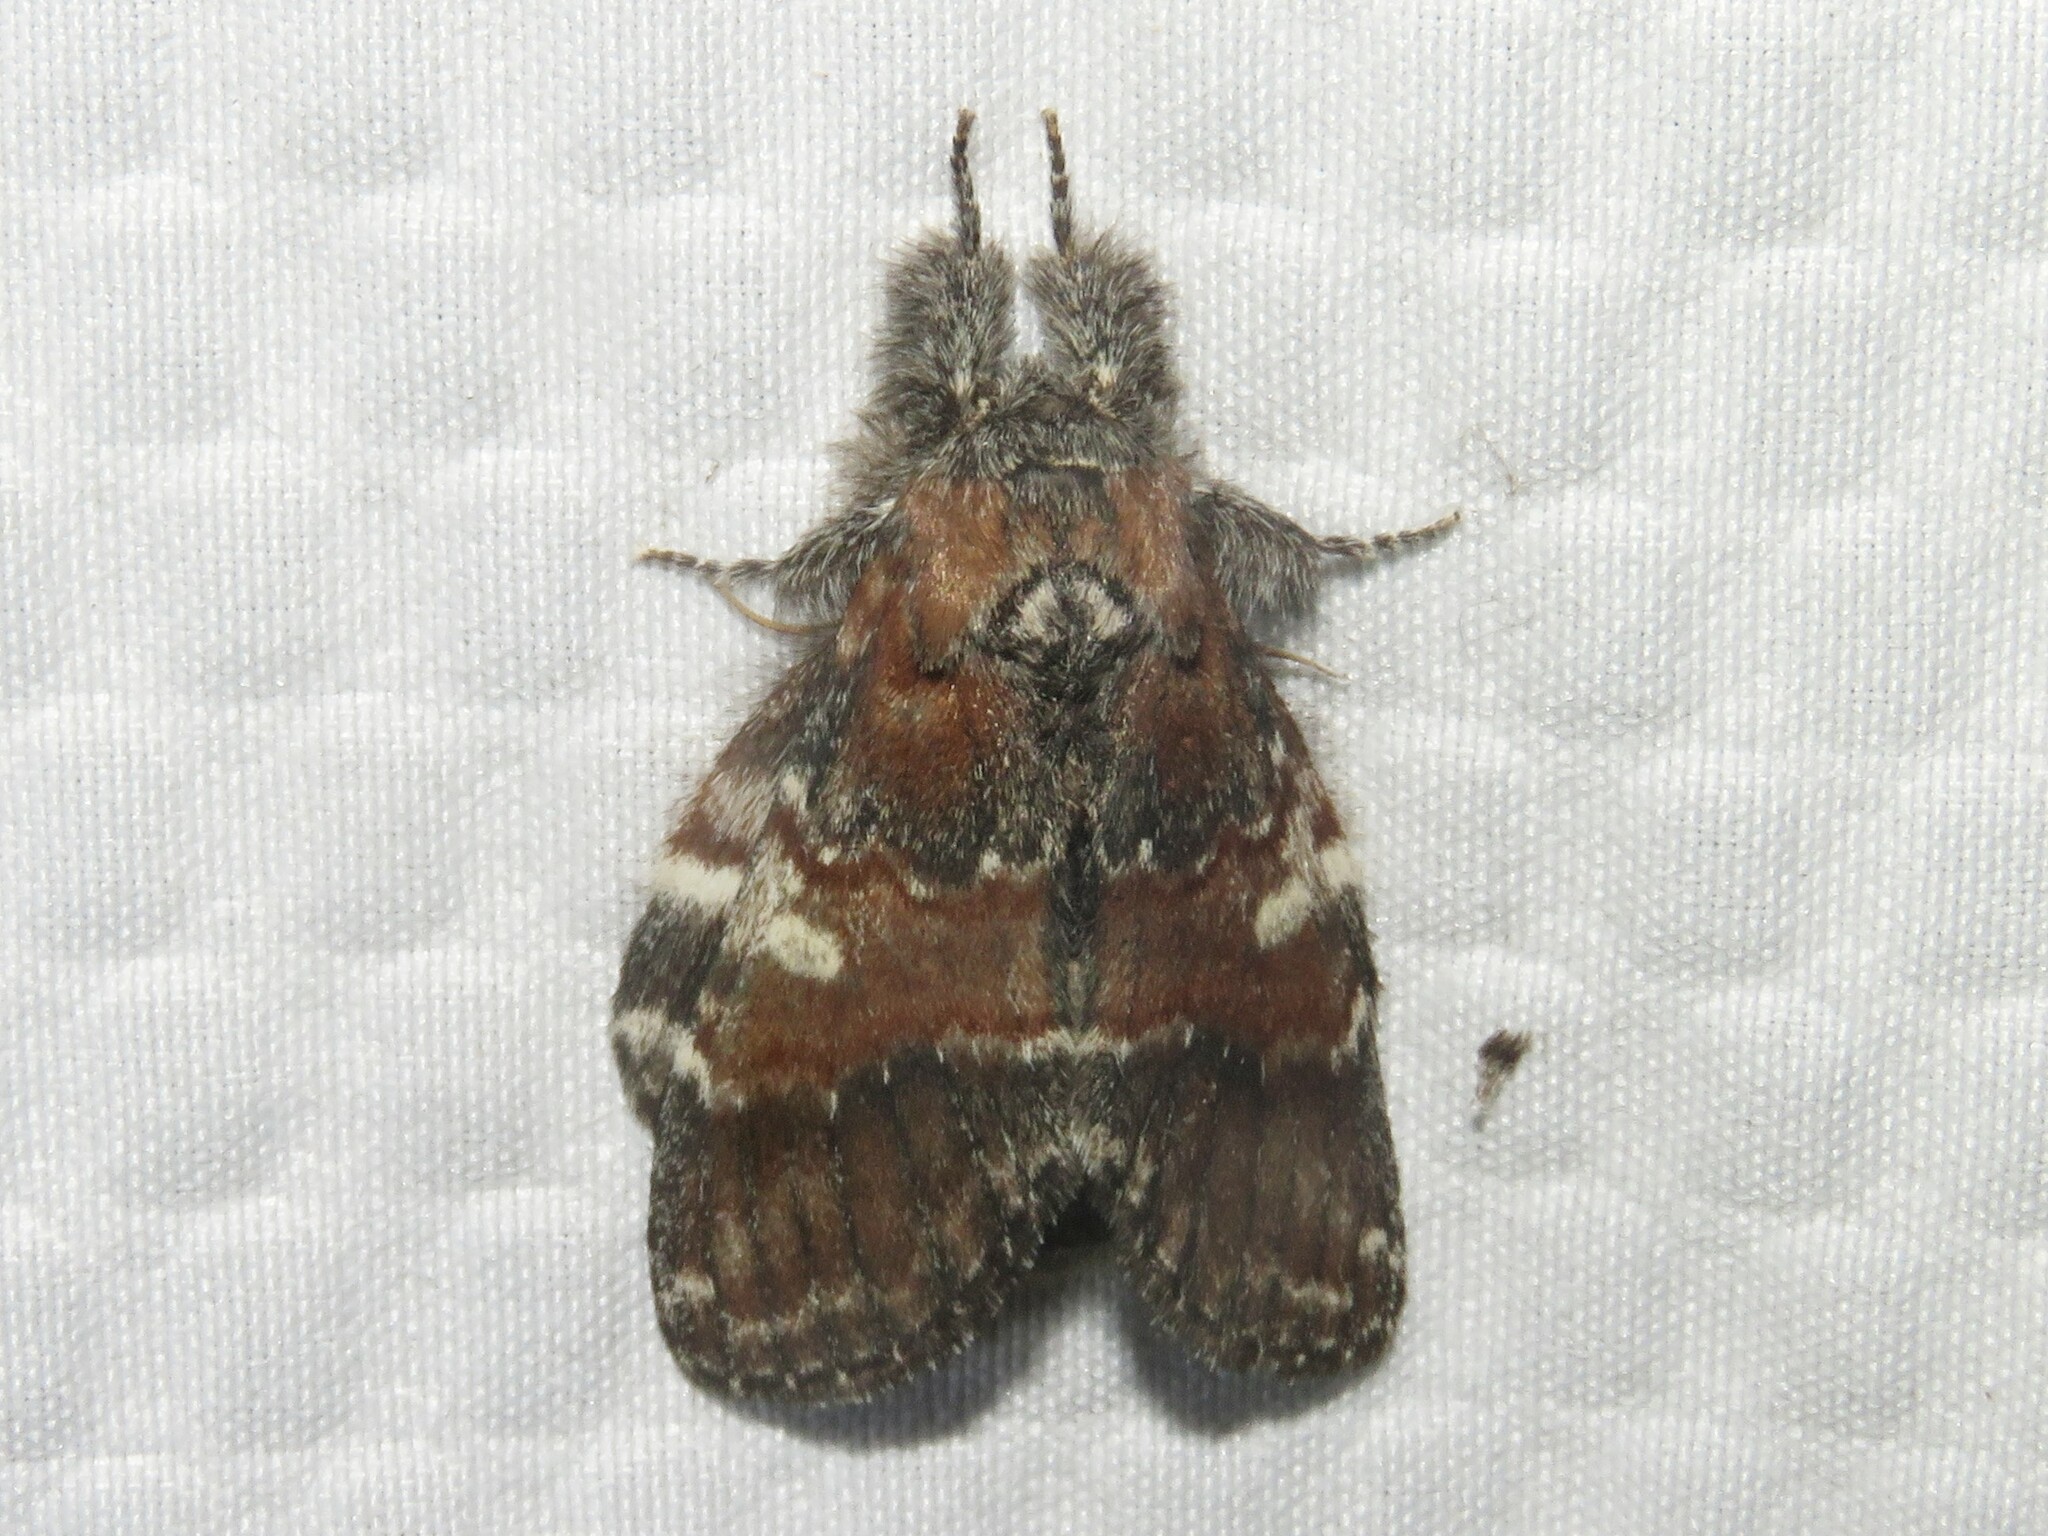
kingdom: Animalia
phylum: Arthropoda
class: Insecta
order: Lepidoptera
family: Notodontidae
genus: Peridea
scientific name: Peridea ferruginea
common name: Chocolate prominent
